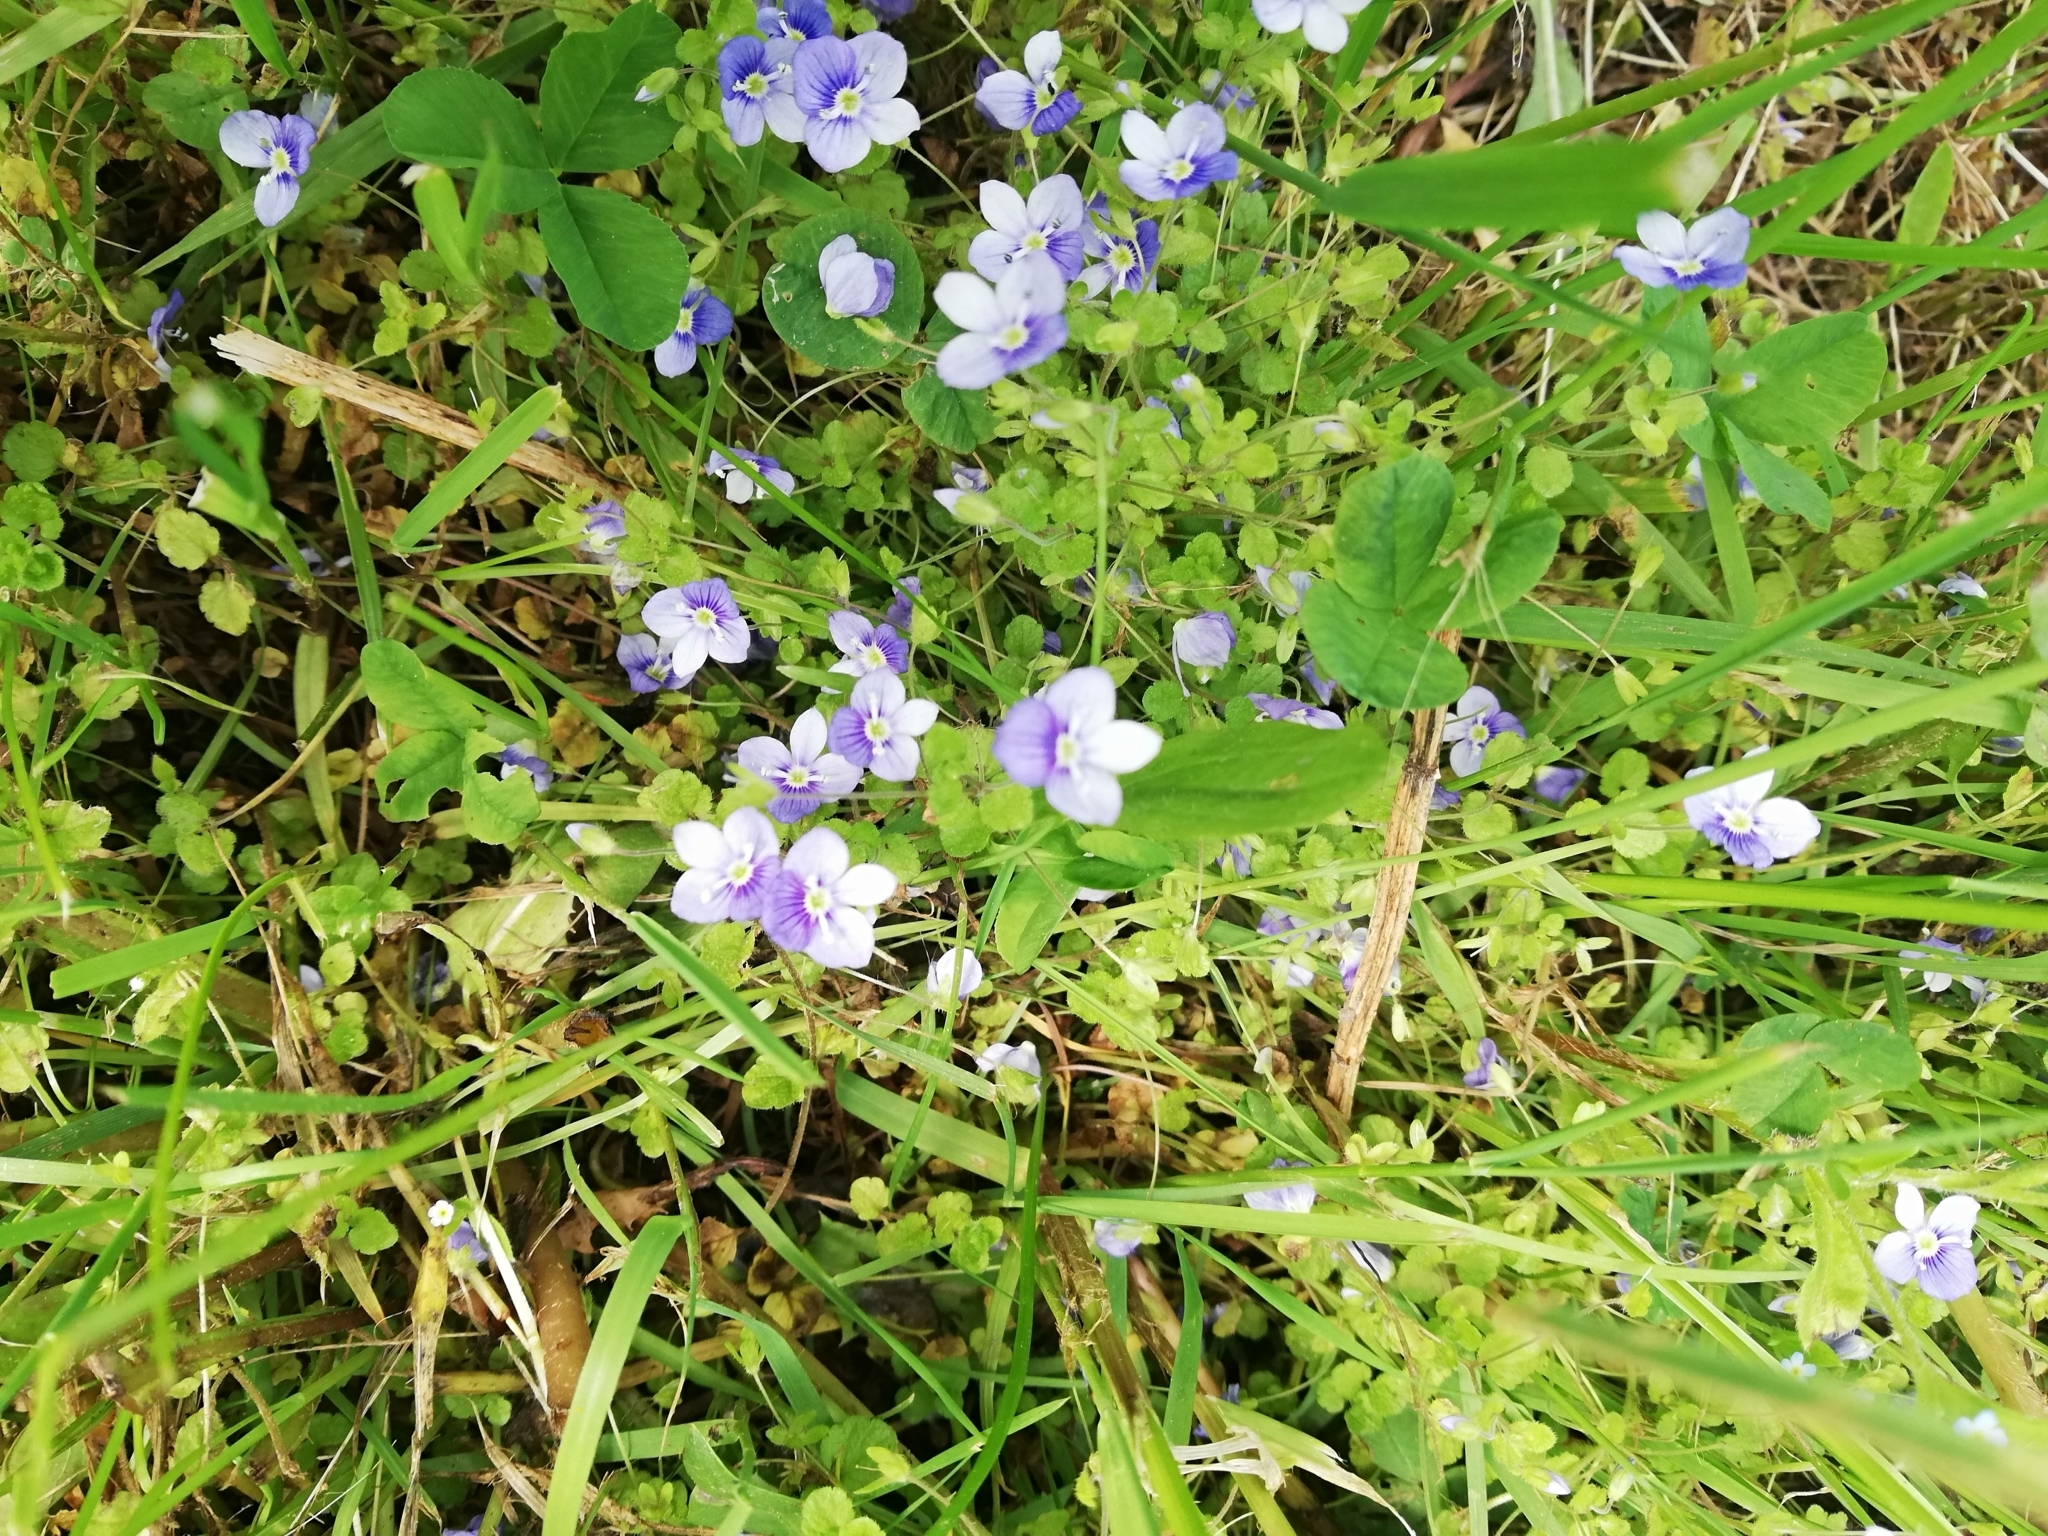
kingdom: Plantae
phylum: Tracheophyta
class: Magnoliopsida
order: Lamiales
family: Plantaginaceae
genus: Veronica
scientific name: Veronica filiformis
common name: Slender speedwell
